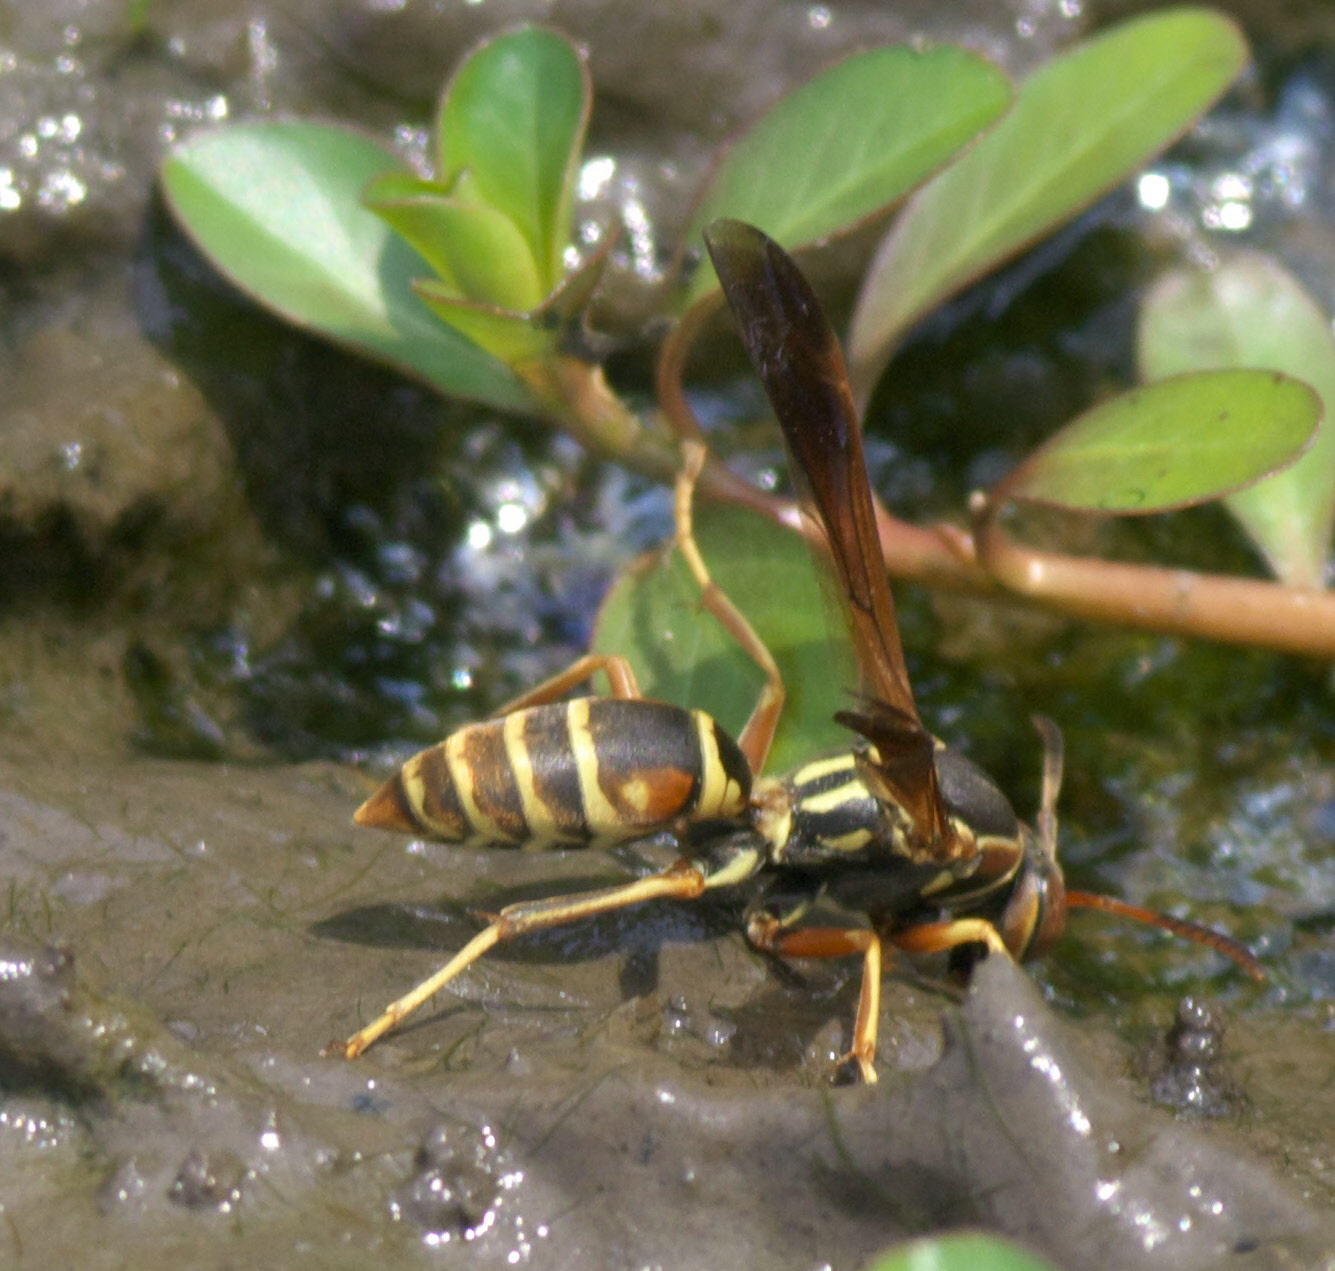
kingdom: Animalia
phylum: Arthropoda
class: Insecta
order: Hymenoptera
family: Eumenidae
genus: Polistes
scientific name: Polistes fuscatus
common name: Dark paper wasp
